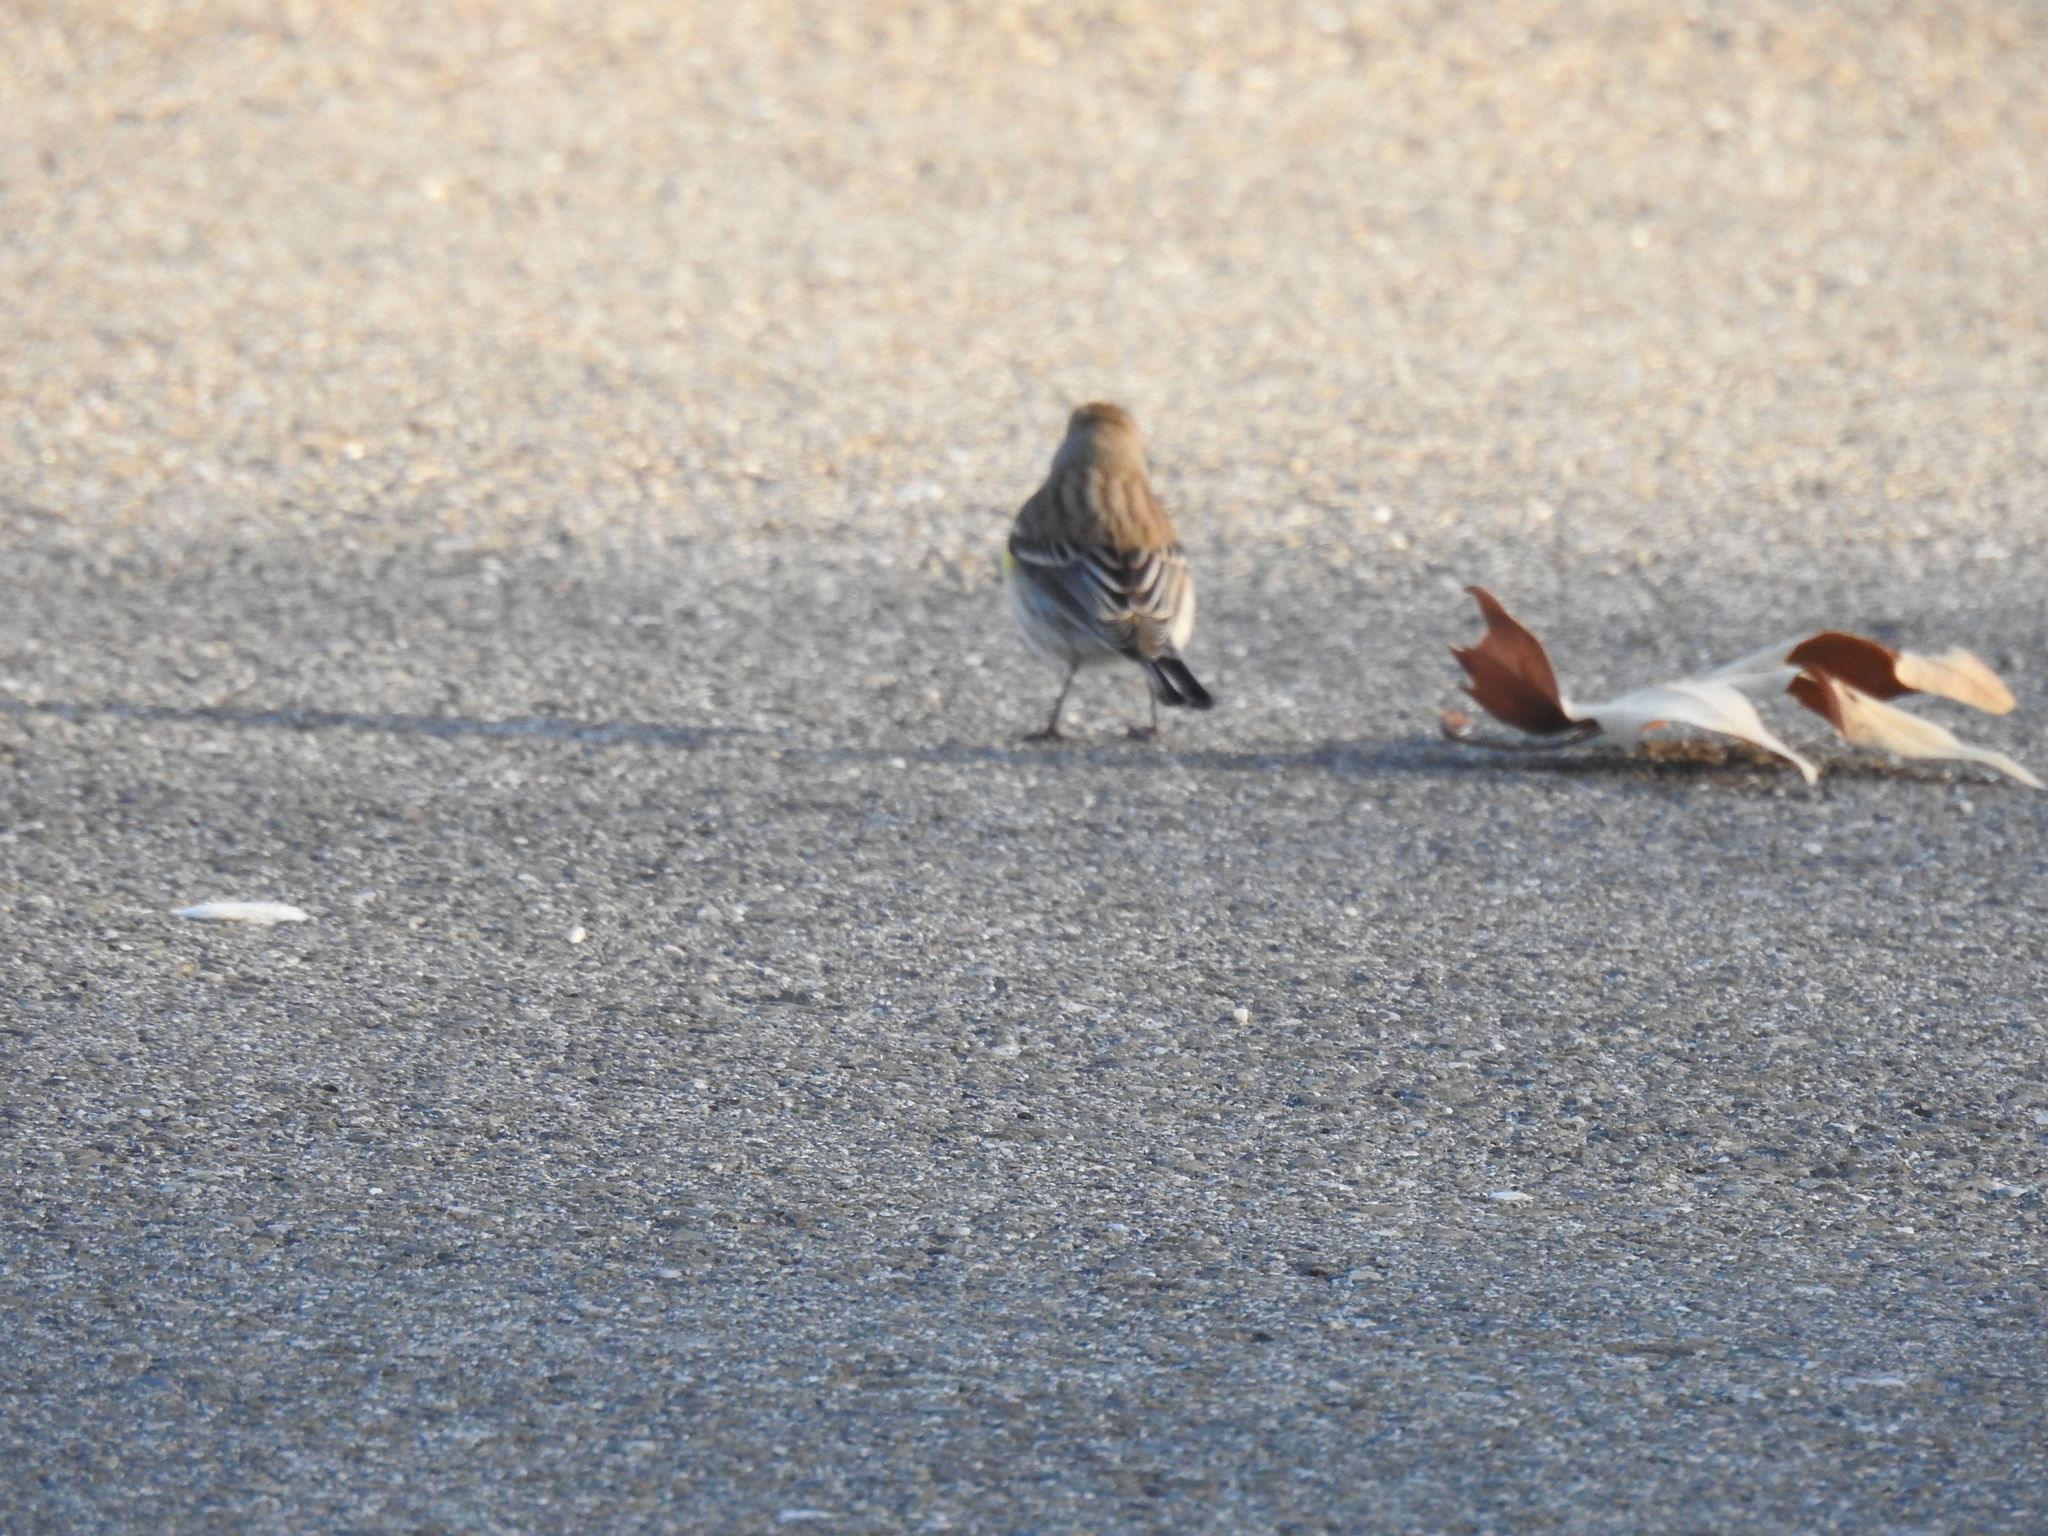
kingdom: Animalia
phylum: Chordata
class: Aves
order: Passeriformes
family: Parulidae
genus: Setophaga
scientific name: Setophaga coronata
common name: Myrtle warbler
